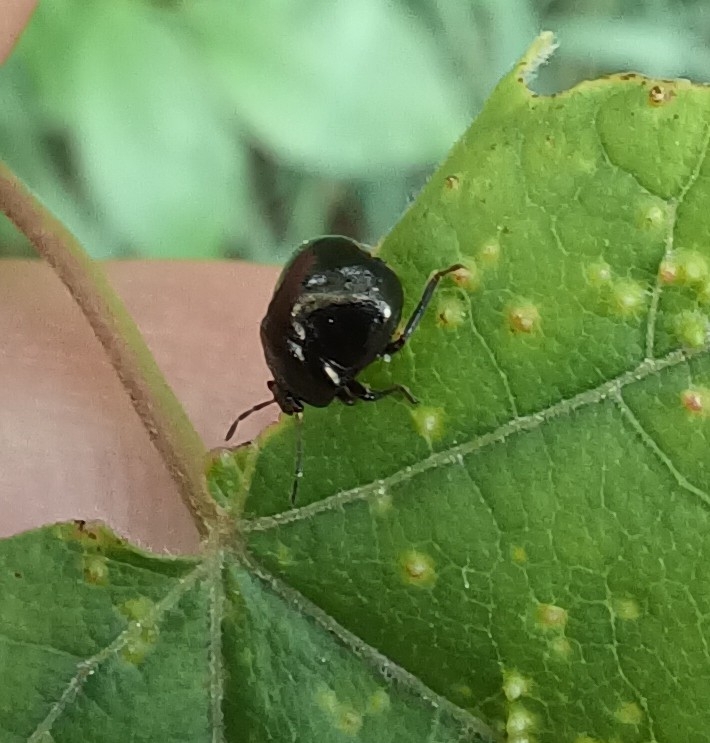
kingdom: Animalia
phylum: Arthropoda
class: Insecta
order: Hemiptera
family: Plataspidae
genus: Coptosoma
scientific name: Coptosoma scutellatum
